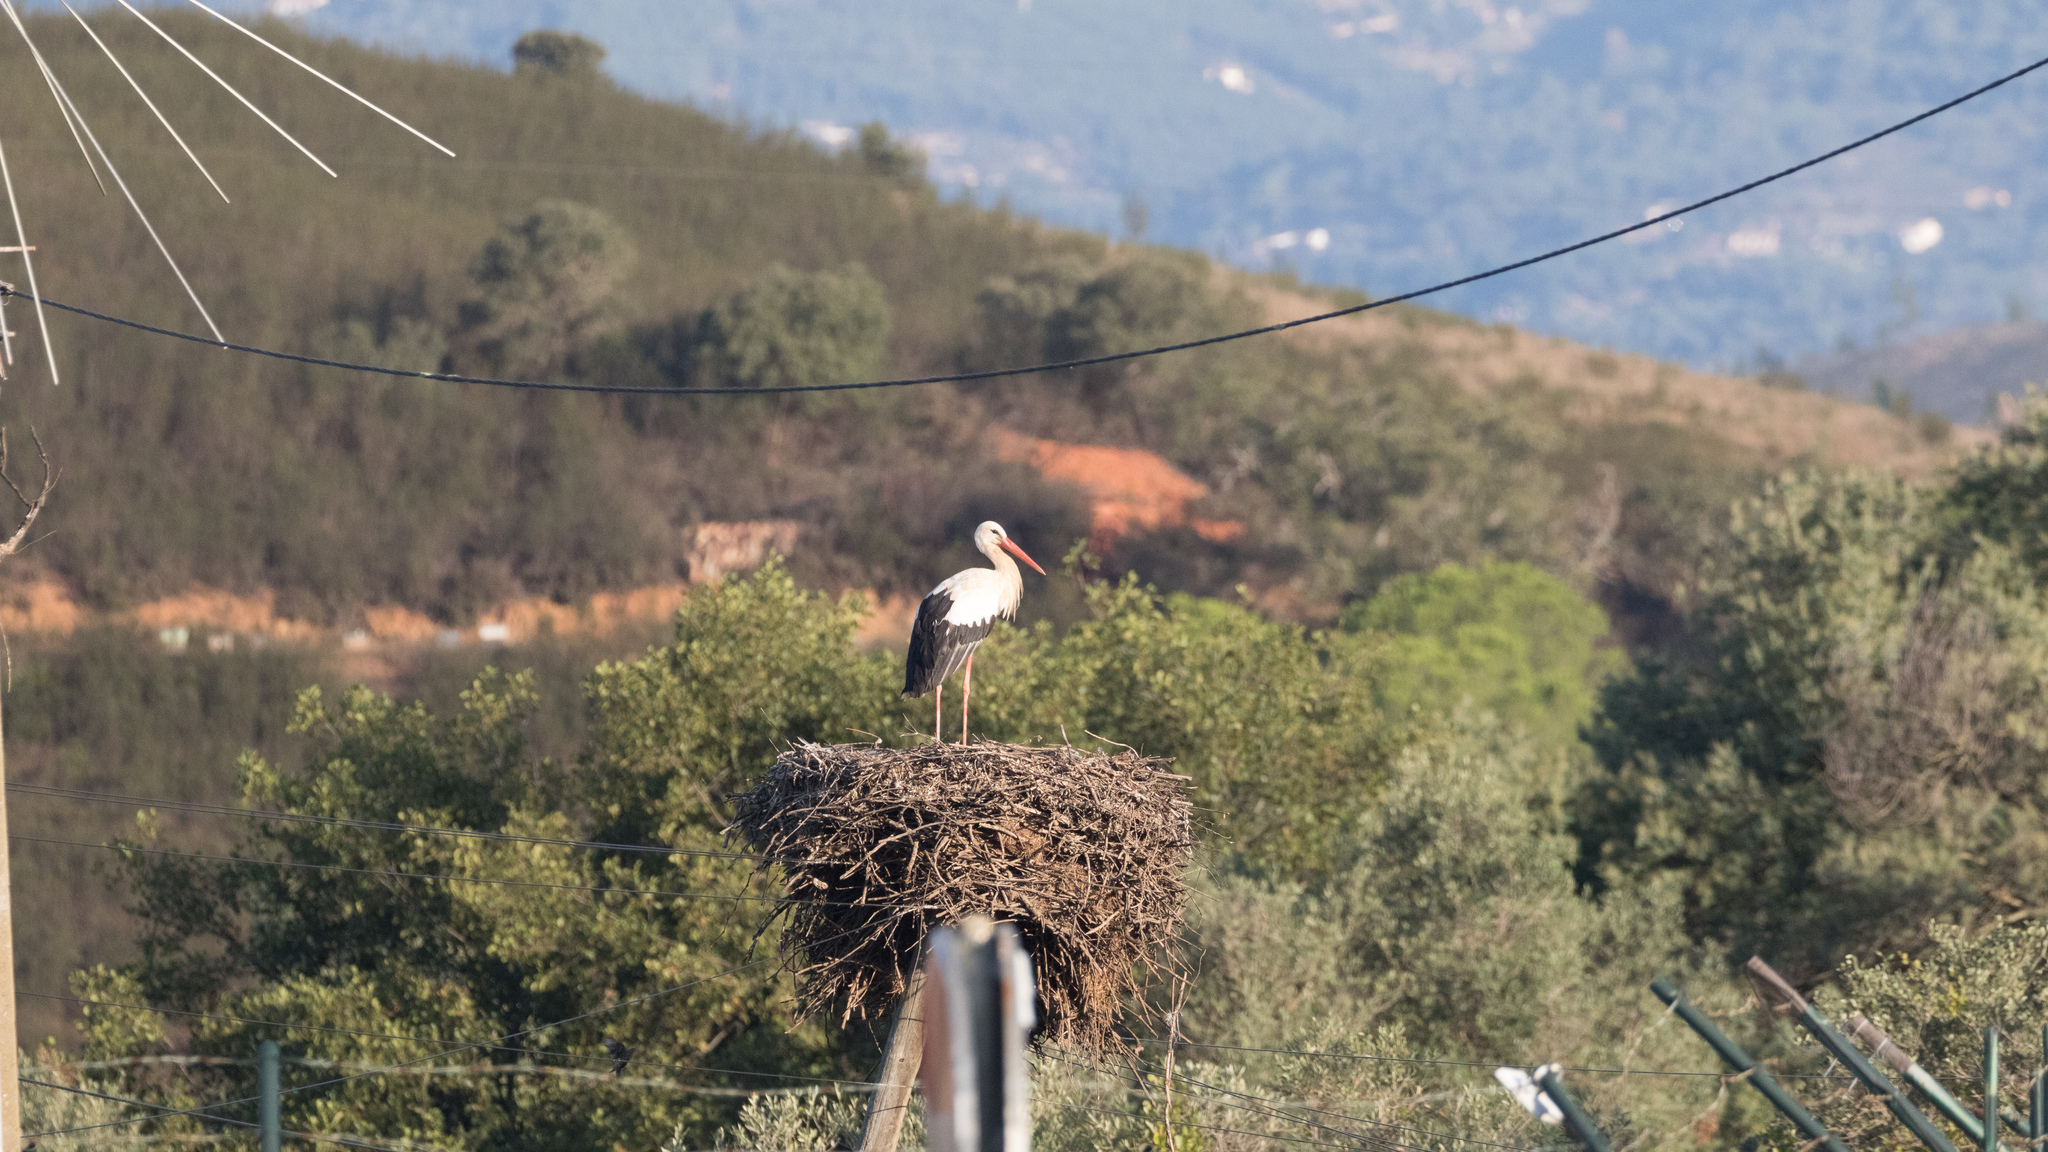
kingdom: Animalia
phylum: Chordata
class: Aves
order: Ciconiiformes
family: Ciconiidae
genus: Ciconia
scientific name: Ciconia ciconia
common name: White stork
